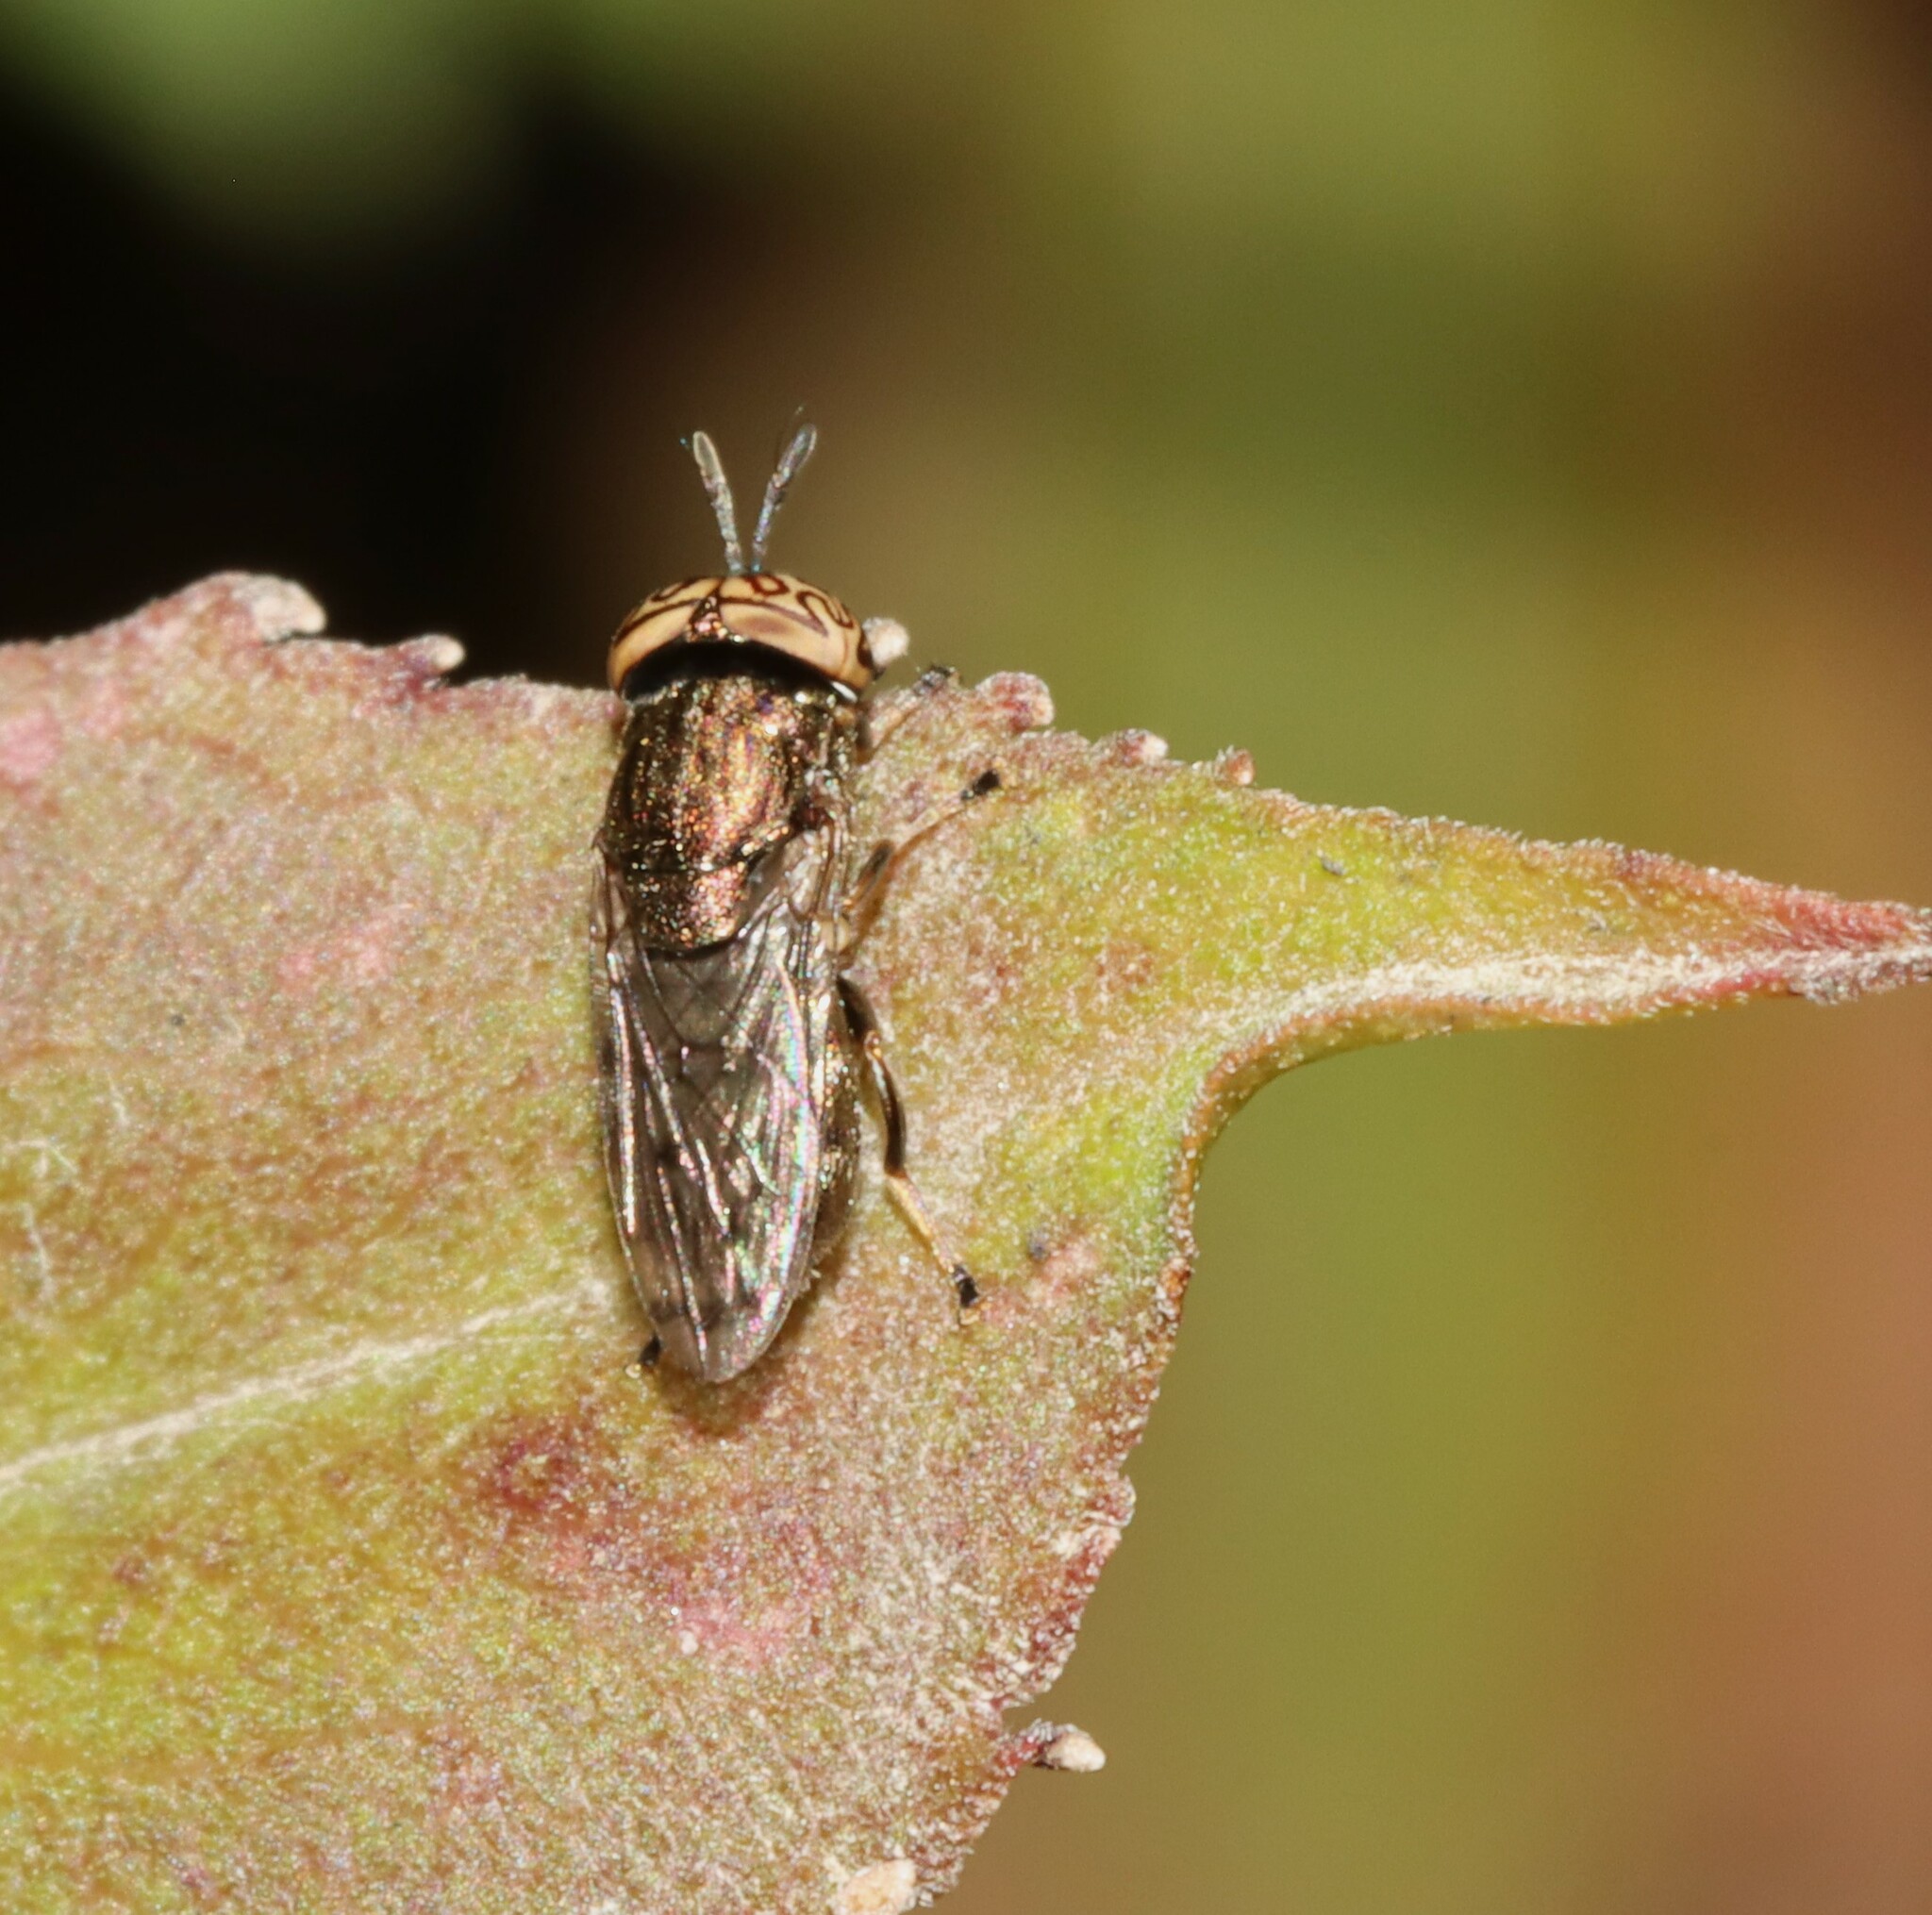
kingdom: Animalia
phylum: Arthropoda
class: Insecta
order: Diptera
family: Syrphidae
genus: Orthonevra
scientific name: Orthonevra nitida
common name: Wavy mucksucker
